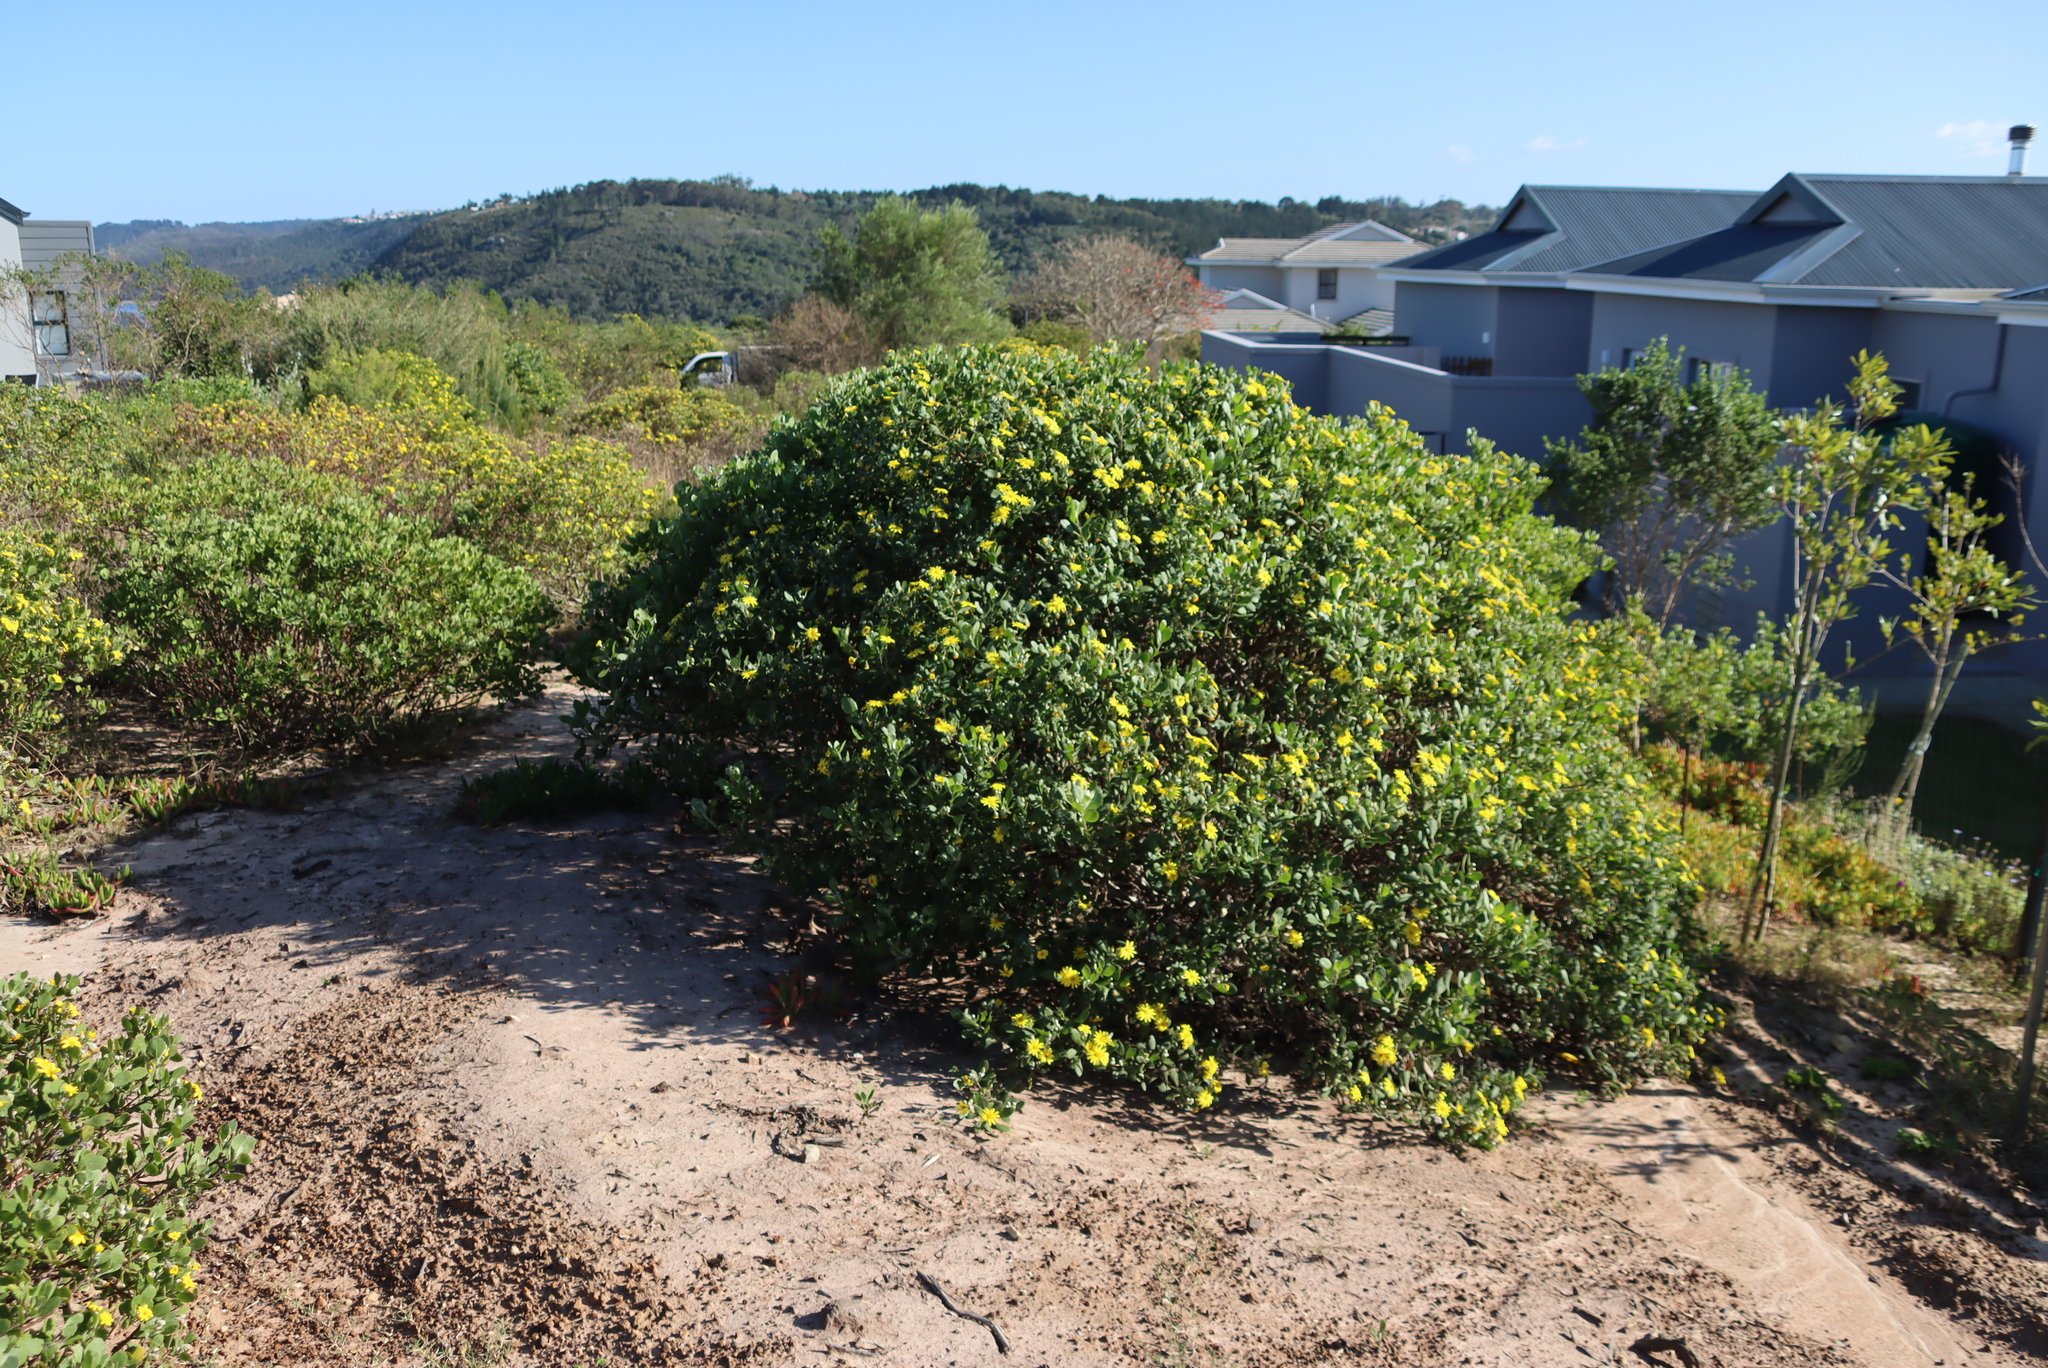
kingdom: Plantae
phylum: Tracheophyta
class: Magnoliopsida
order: Asterales
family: Asteraceae
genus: Osteospermum
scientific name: Osteospermum moniliferum
